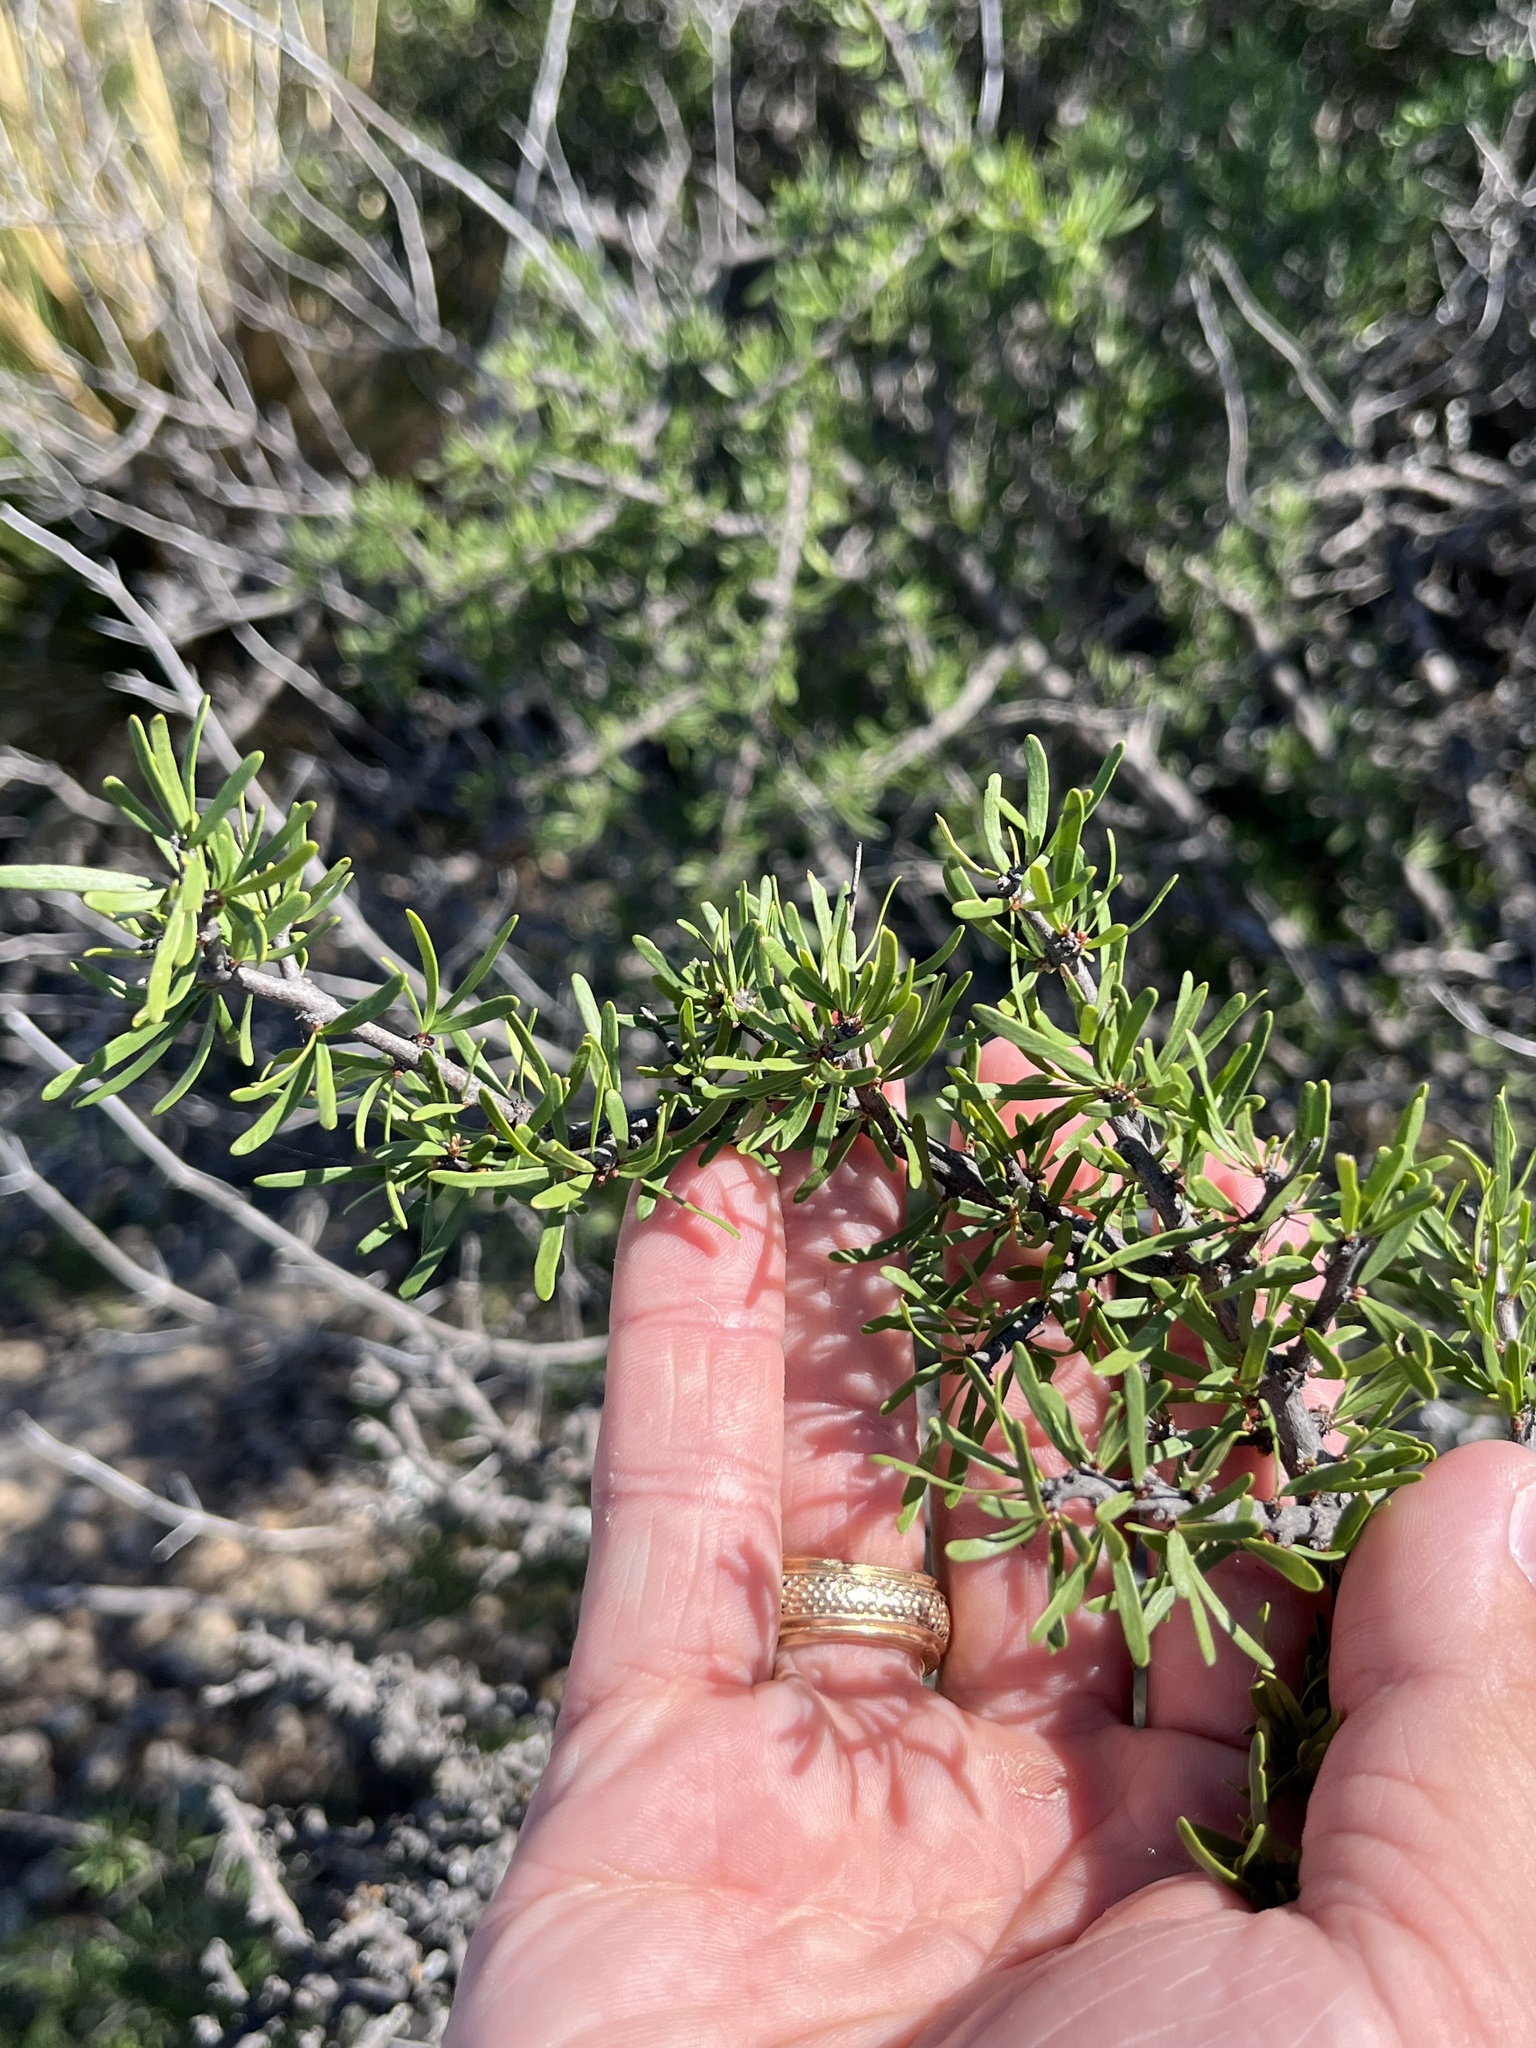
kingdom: Plantae
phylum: Tracheophyta
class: Magnoliopsida
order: Lamiales
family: Oleaceae
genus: Forestiera
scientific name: Forestiera angustifolia
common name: Elbowbush
